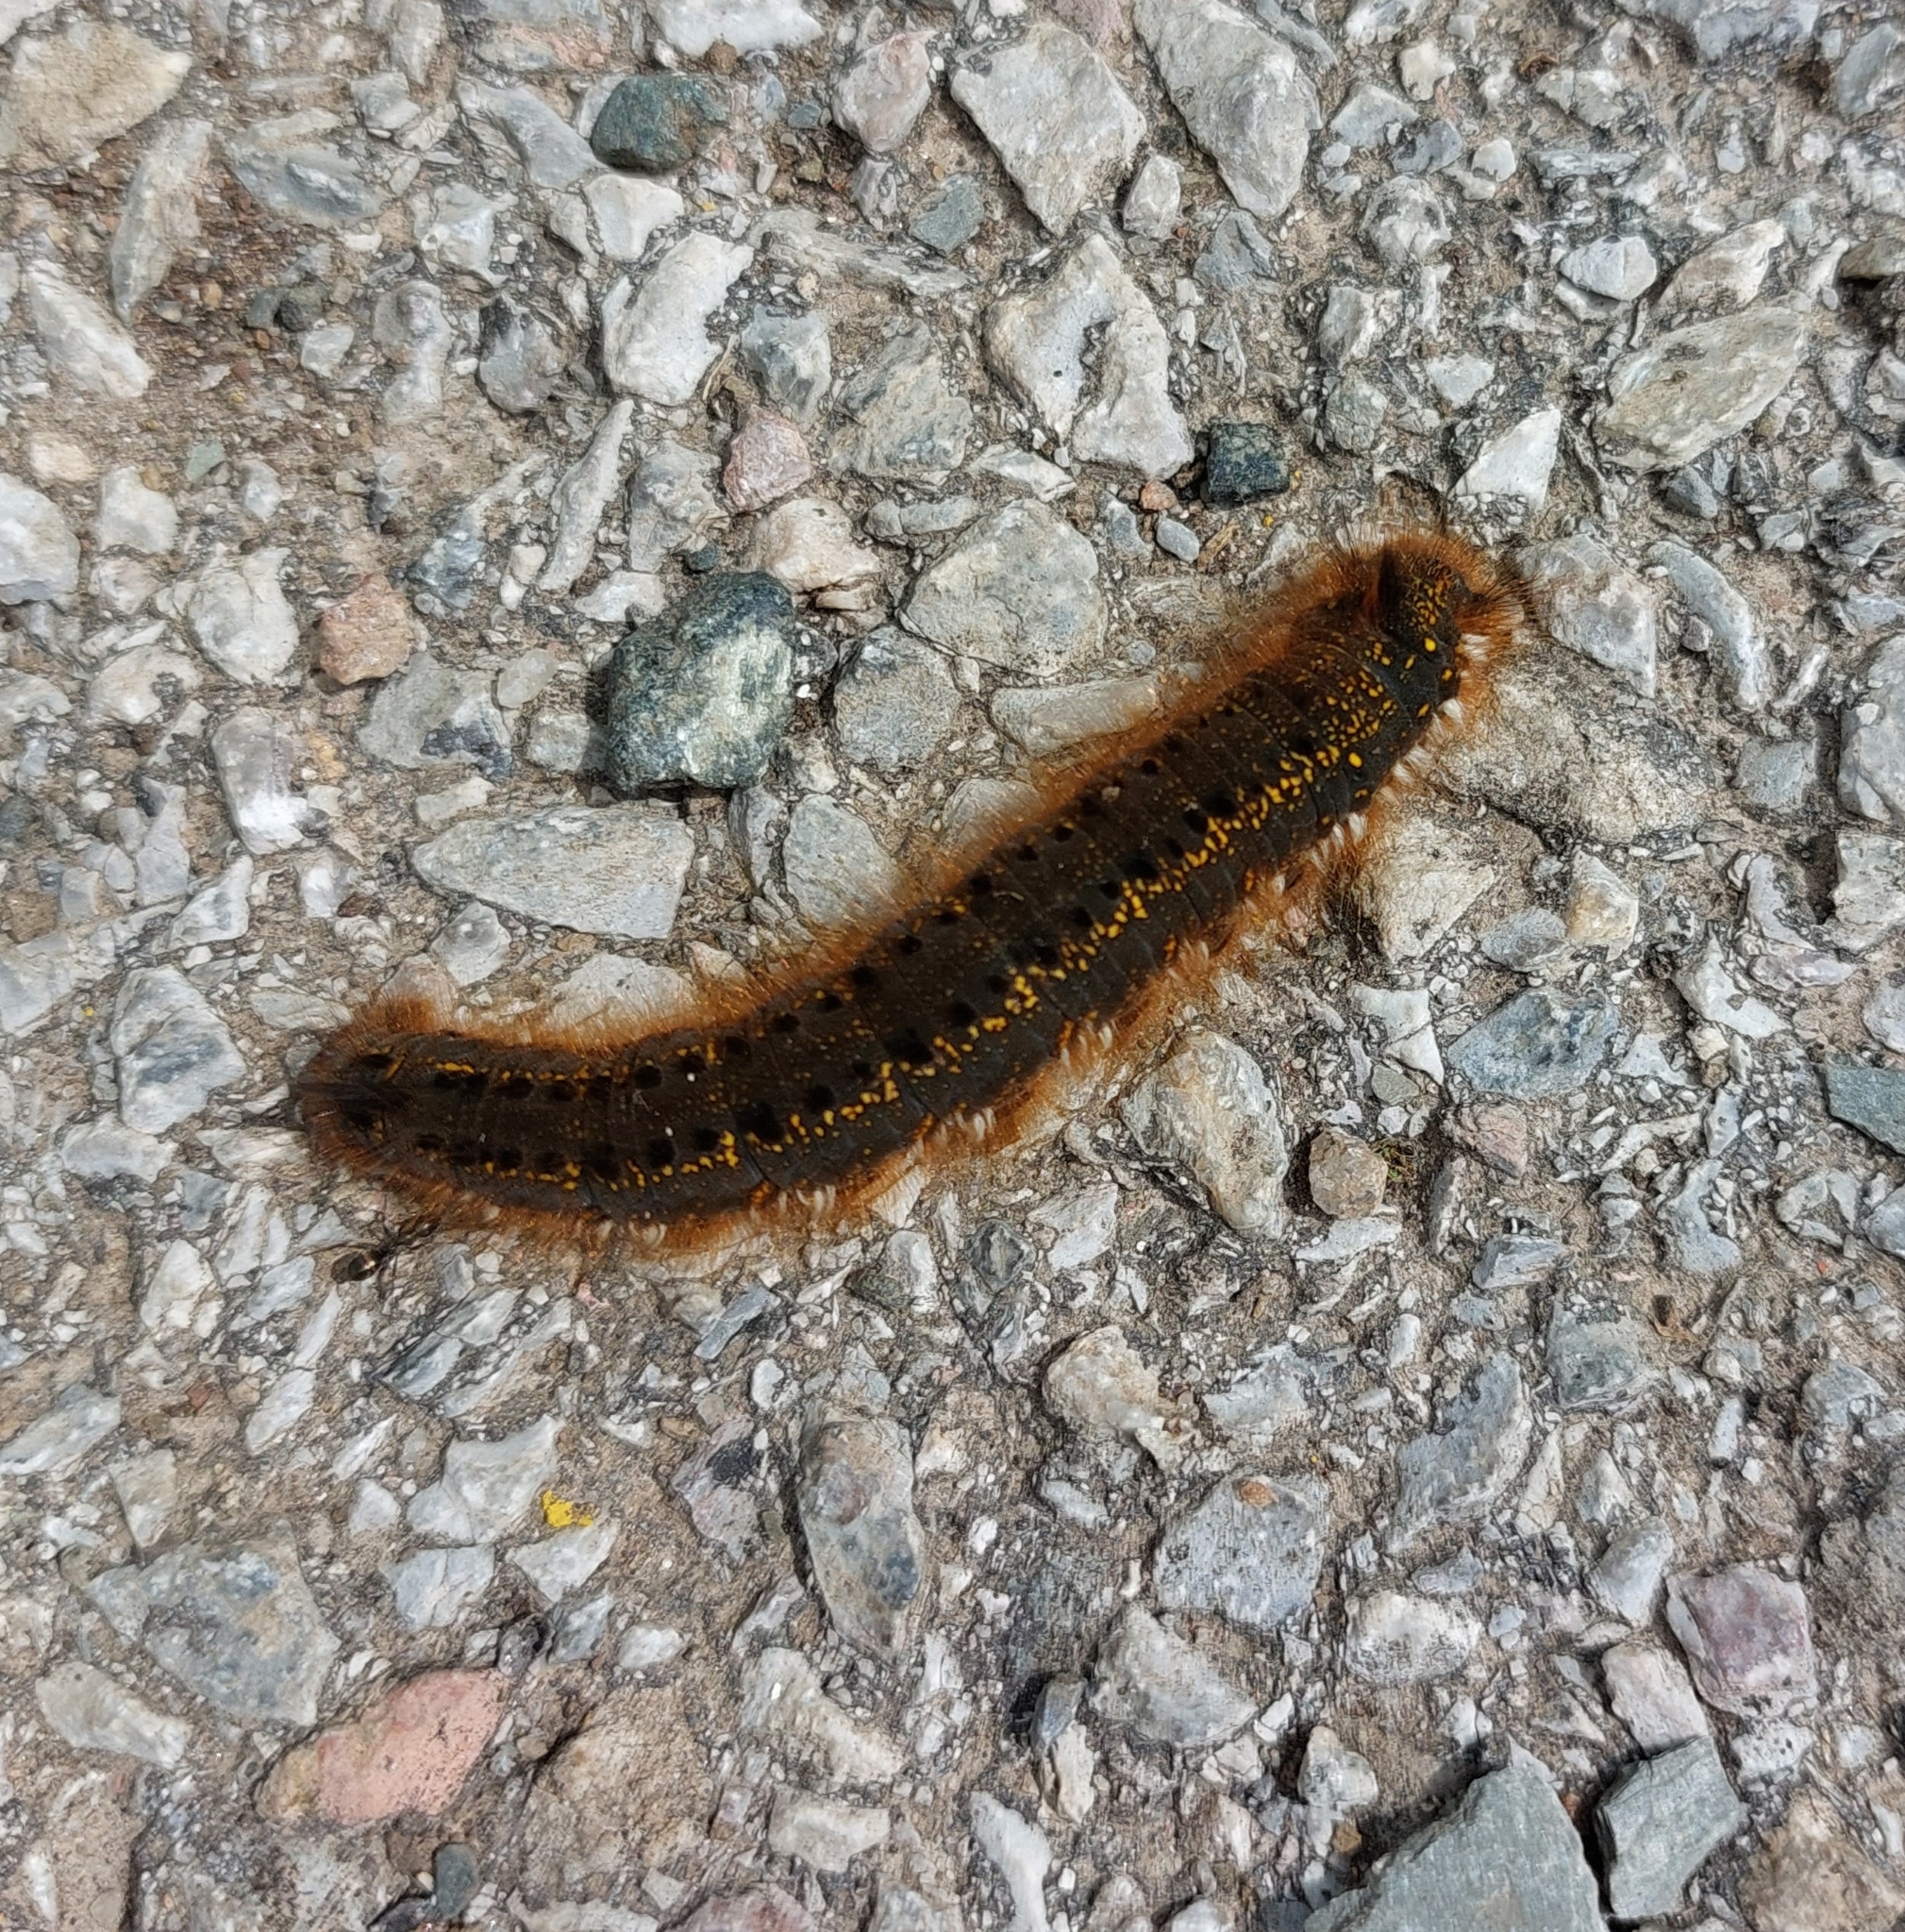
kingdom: Animalia
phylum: Arthropoda
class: Insecta
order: Lepidoptera
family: Lasiocampidae
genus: Euthrix
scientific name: Euthrix potatoria
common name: Drinker
